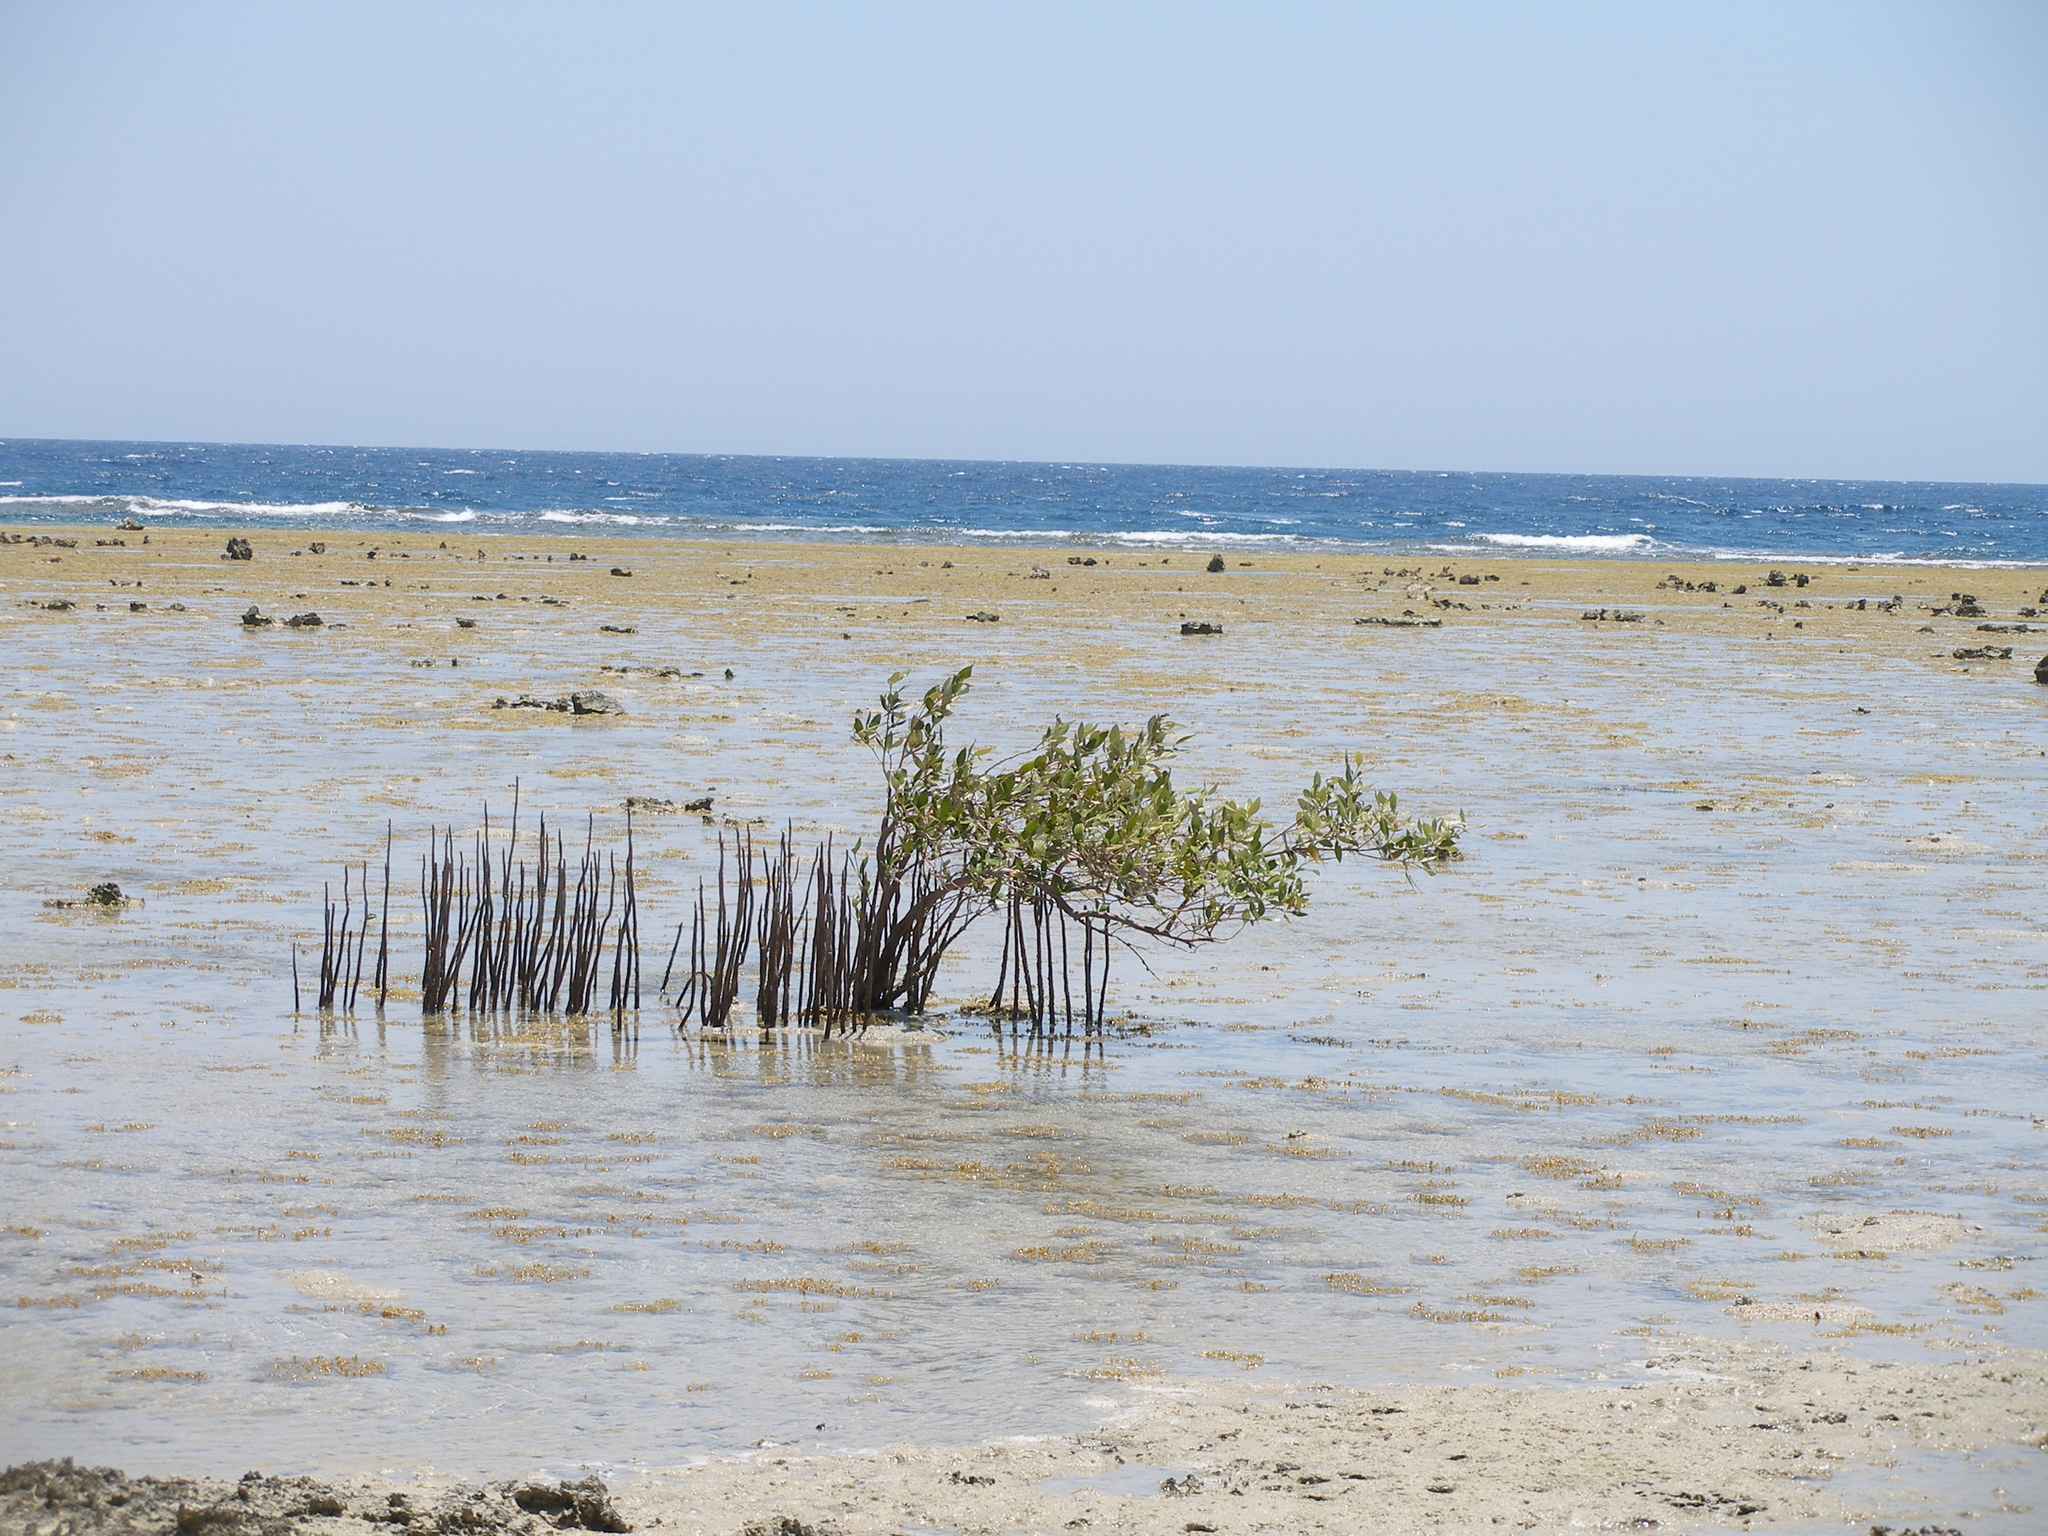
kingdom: Plantae
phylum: Tracheophyta
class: Magnoliopsida
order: Lamiales
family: Acanthaceae
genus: Avicennia
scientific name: Avicennia marina
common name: Gray mangrove
